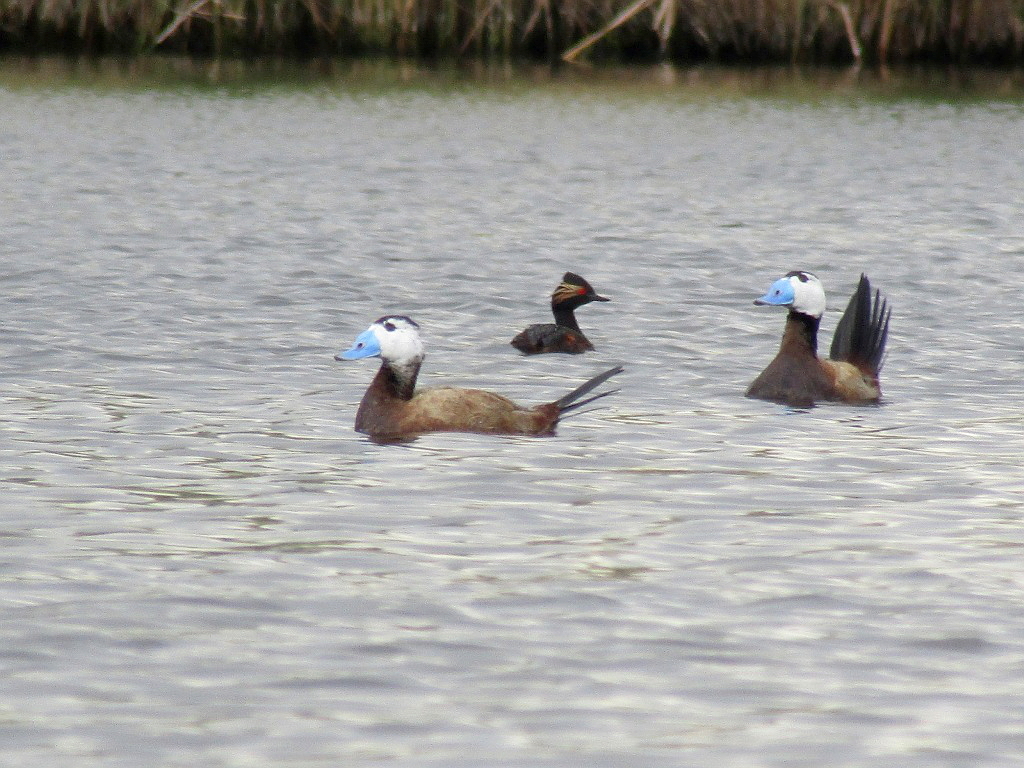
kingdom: Animalia
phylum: Chordata
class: Aves
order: Anseriformes
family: Anatidae
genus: Oxyura
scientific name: Oxyura leucocephala
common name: White-headed duck
